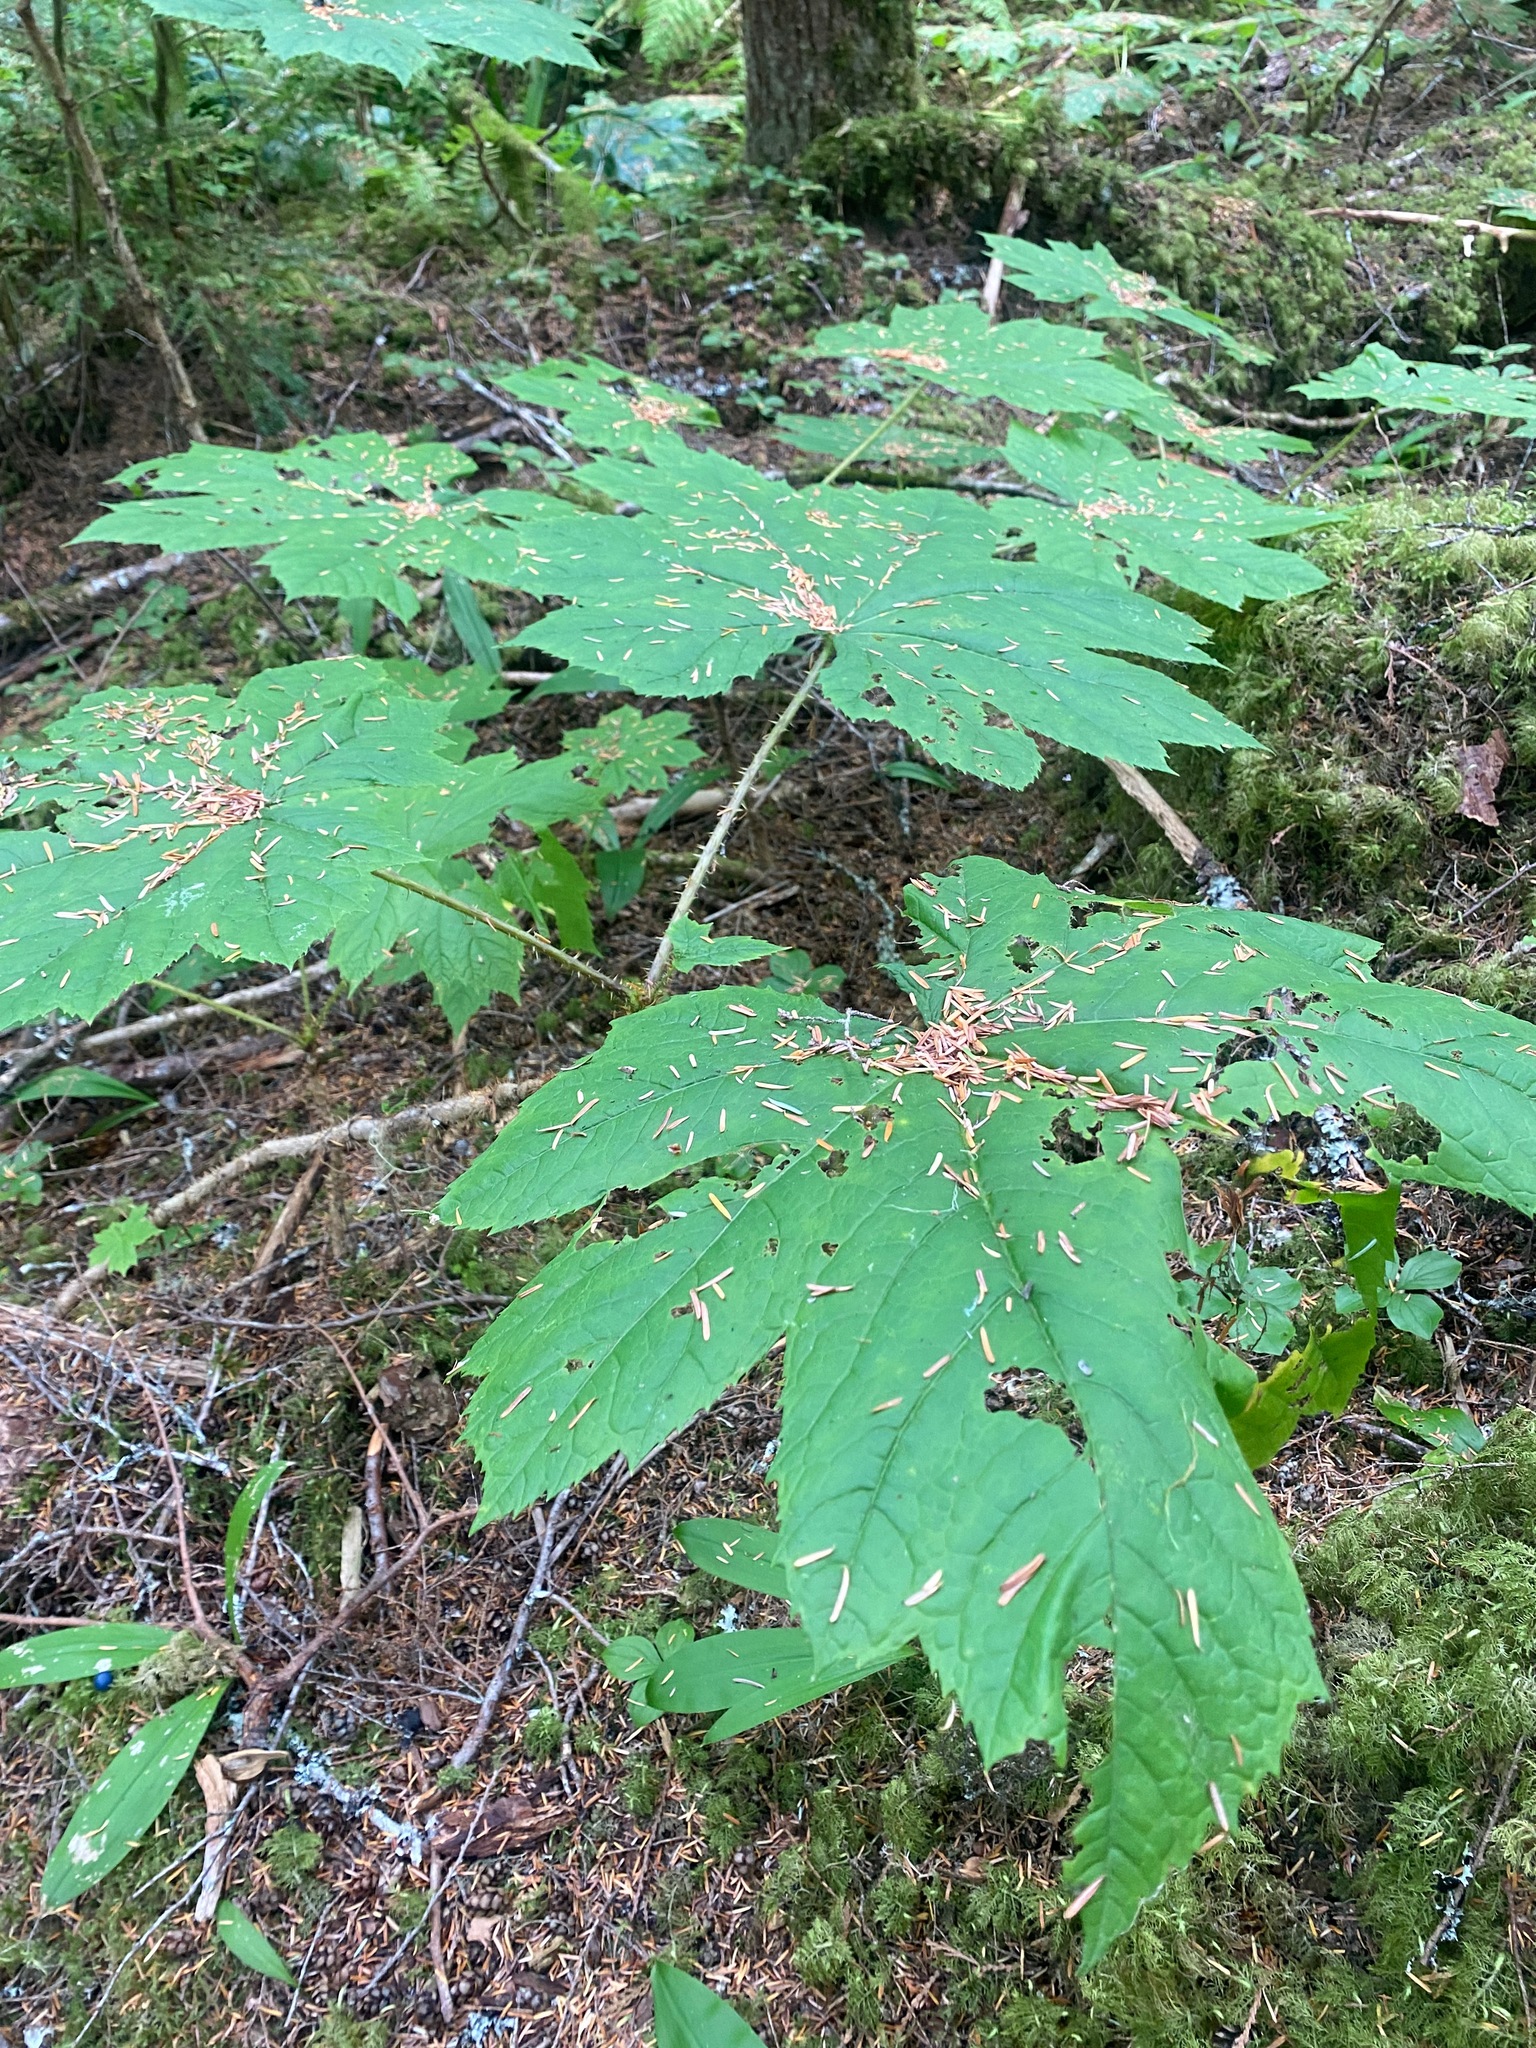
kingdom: Plantae
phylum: Tracheophyta
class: Magnoliopsida
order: Apiales
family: Araliaceae
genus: Oplopanax
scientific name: Oplopanax horridus
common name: Devil's walking-stick
